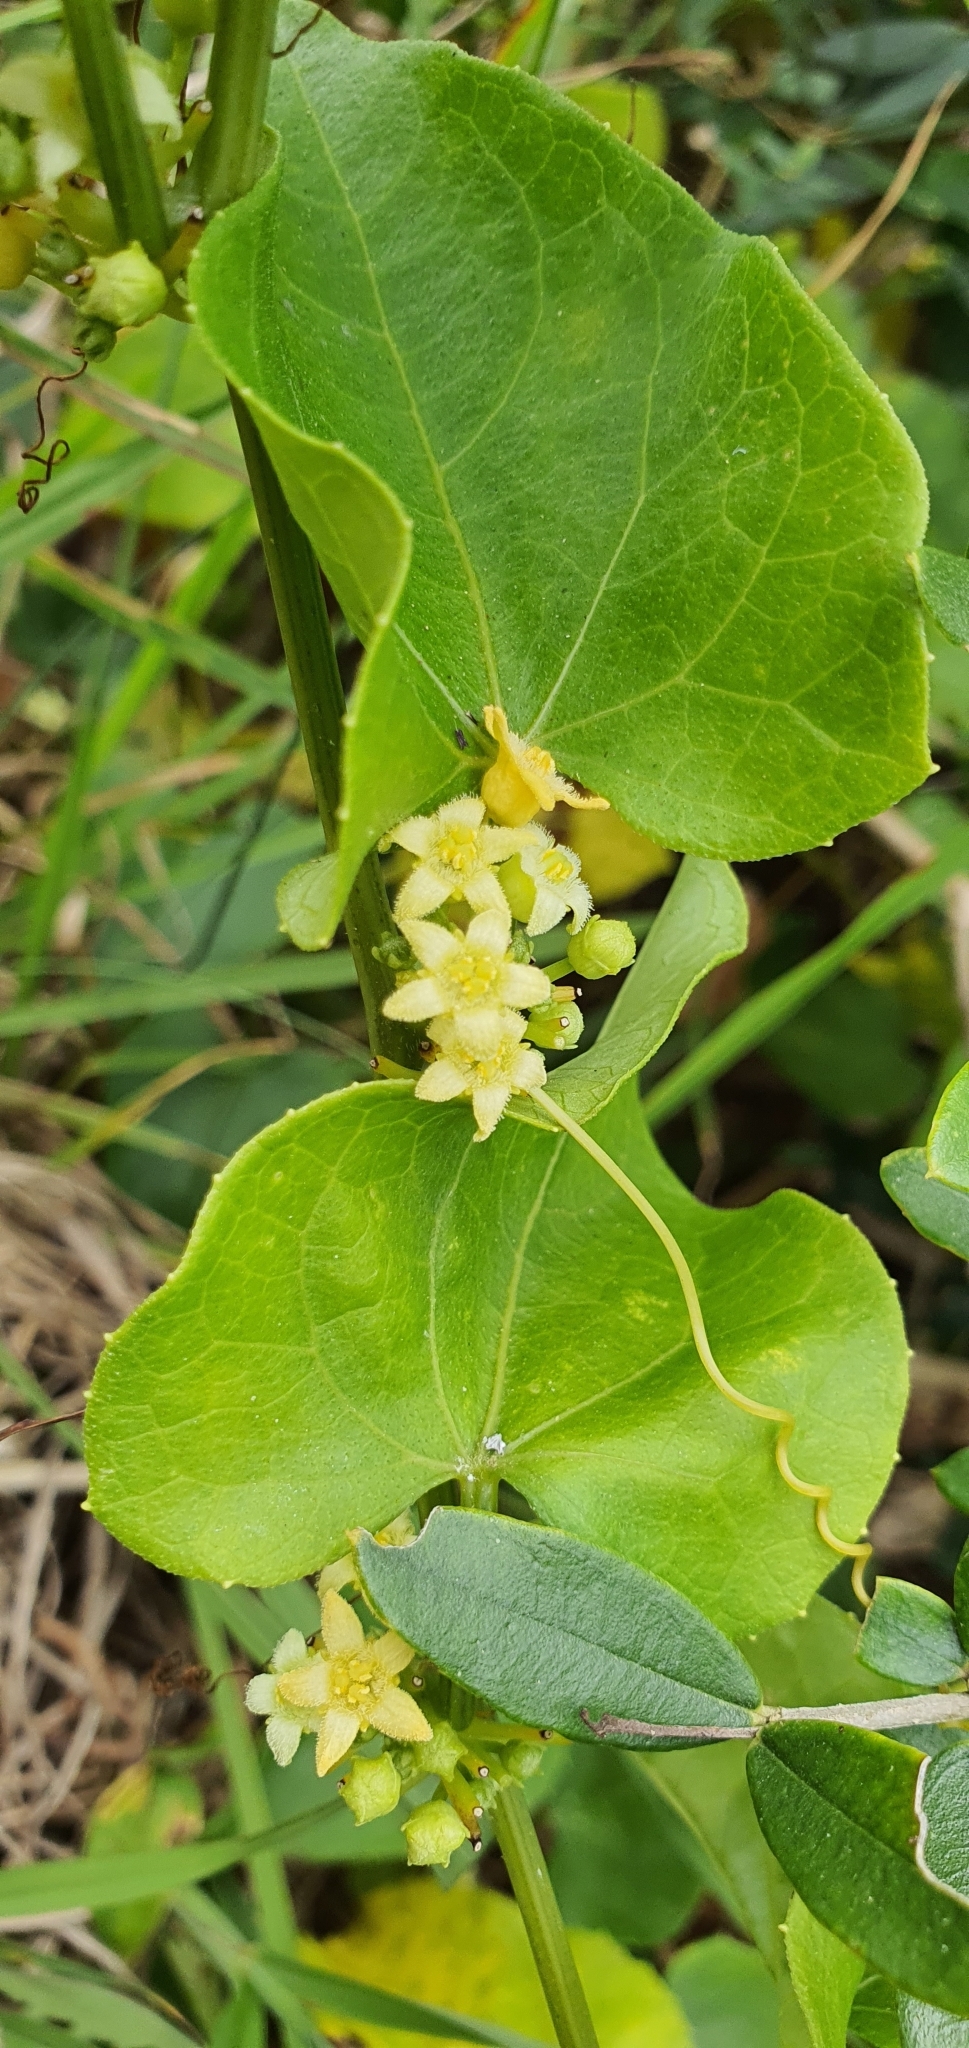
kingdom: Plantae
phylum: Tracheophyta
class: Magnoliopsida
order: Cucurbitales
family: Cucurbitaceae
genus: Zehneria
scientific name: Zehneria mucronata
